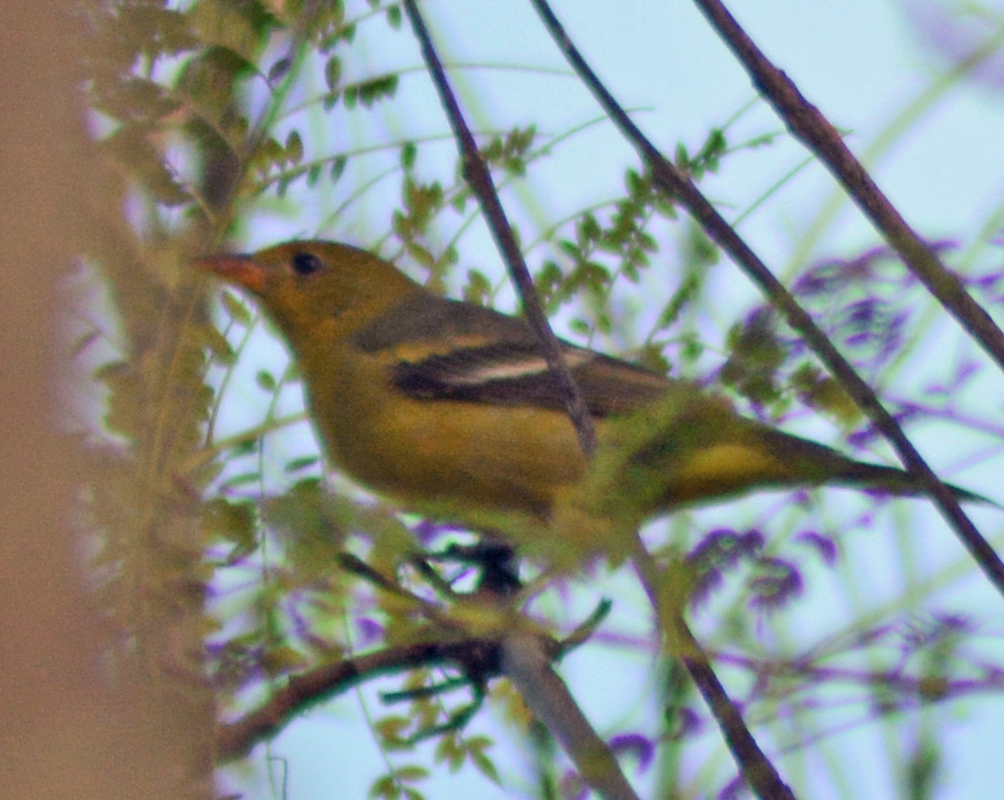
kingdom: Animalia
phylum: Chordata
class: Aves
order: Passeriformes
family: Cardinalidae
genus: Piranga
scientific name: Piranga ludoviciana
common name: Western tanager
